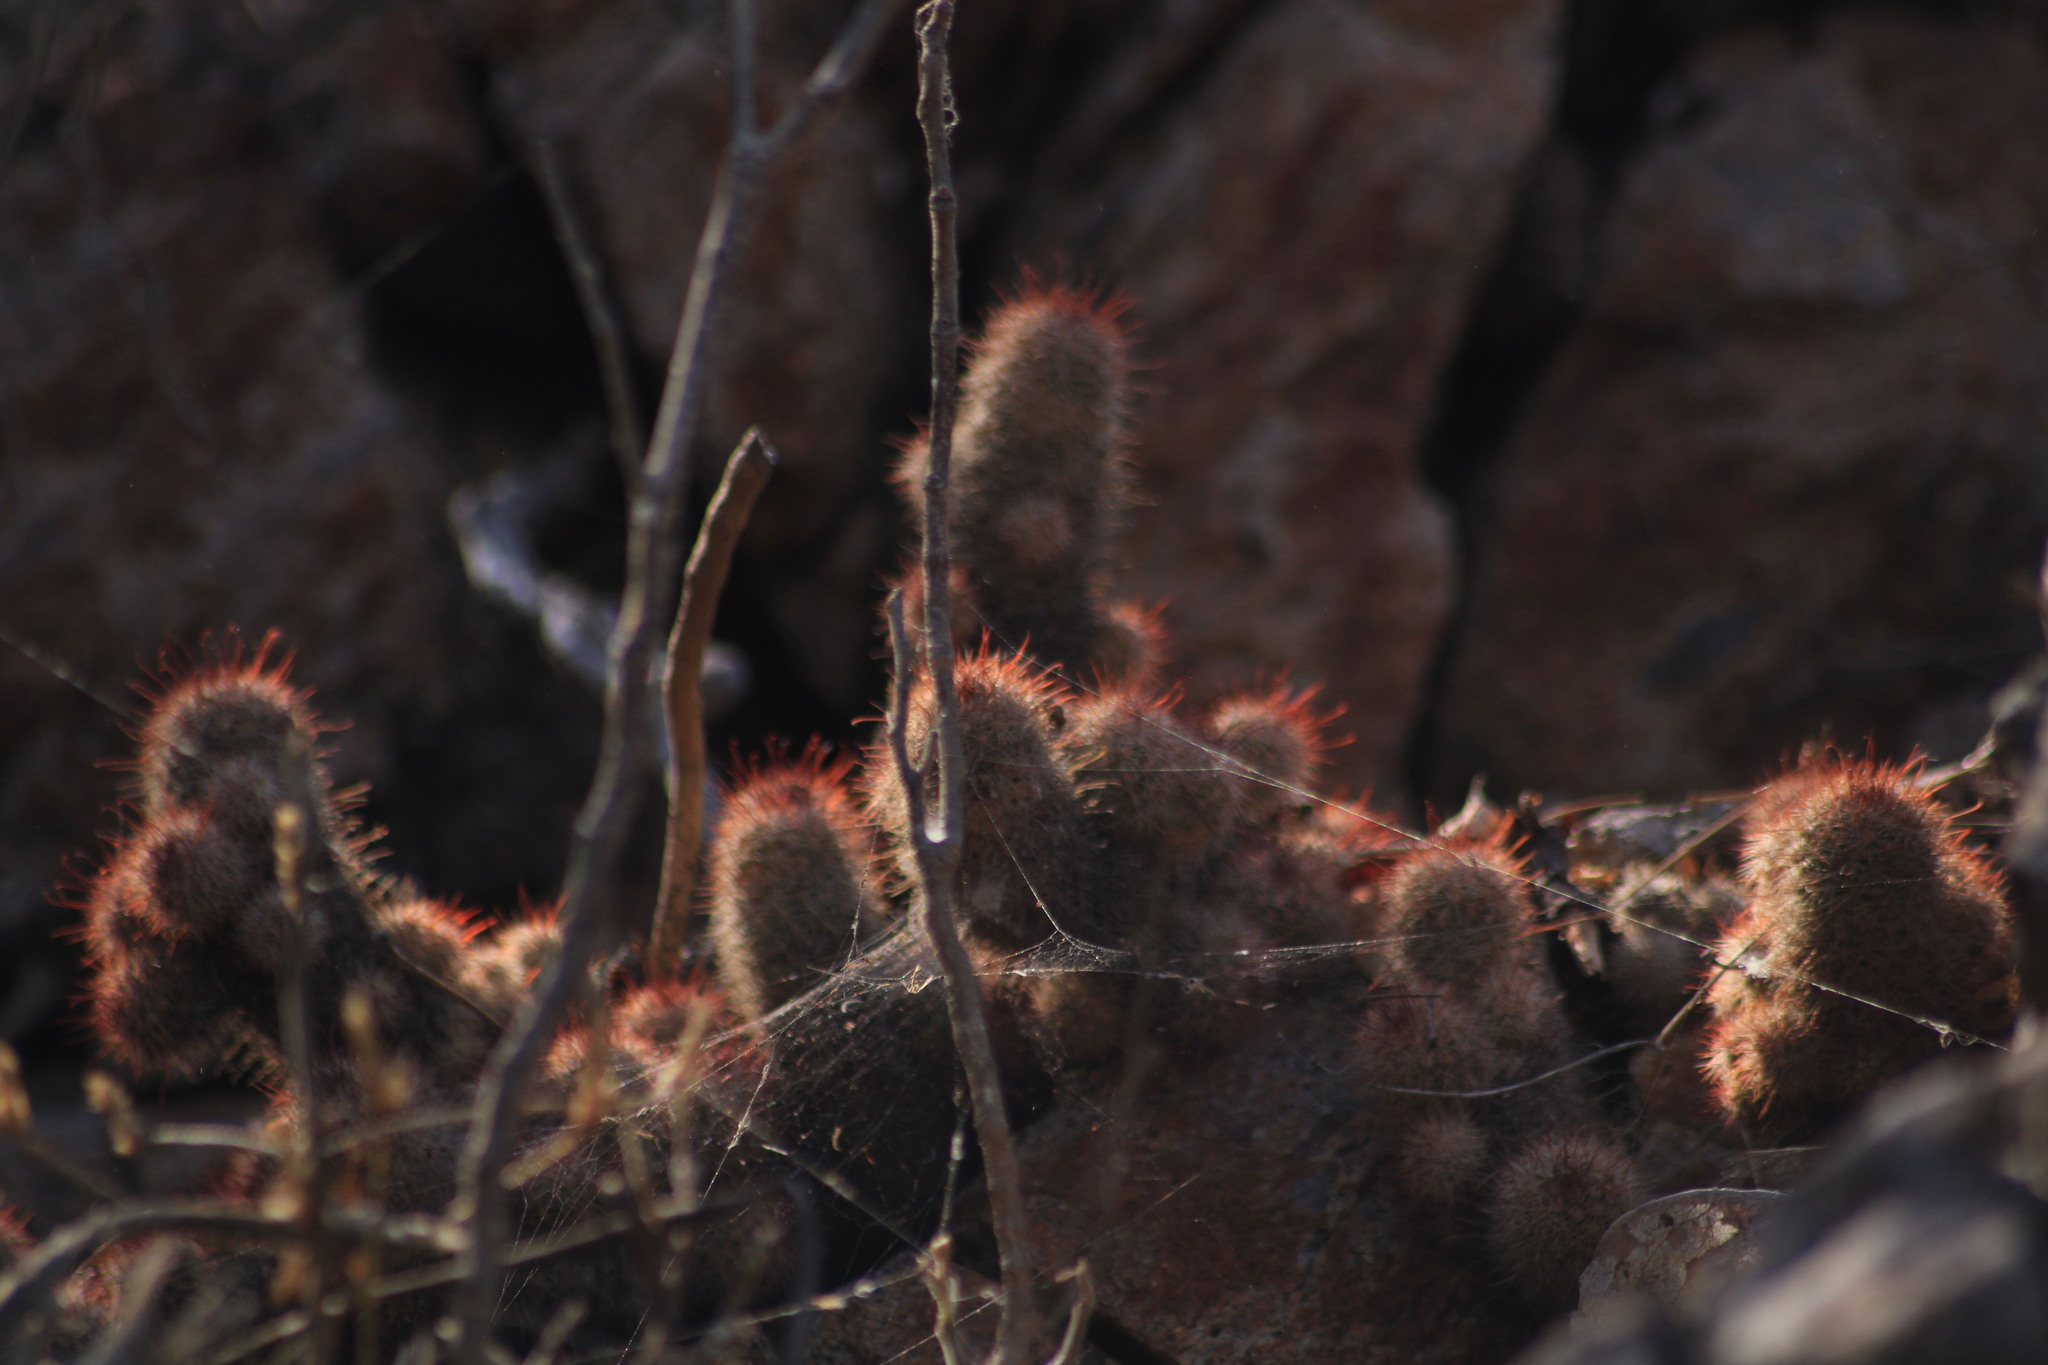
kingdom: Plantae
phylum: Tracheophyta
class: Magnoliopsida
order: Caryophyllales
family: Cactaceae
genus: Cochemiea
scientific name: Cochemiea mazatlanensis
